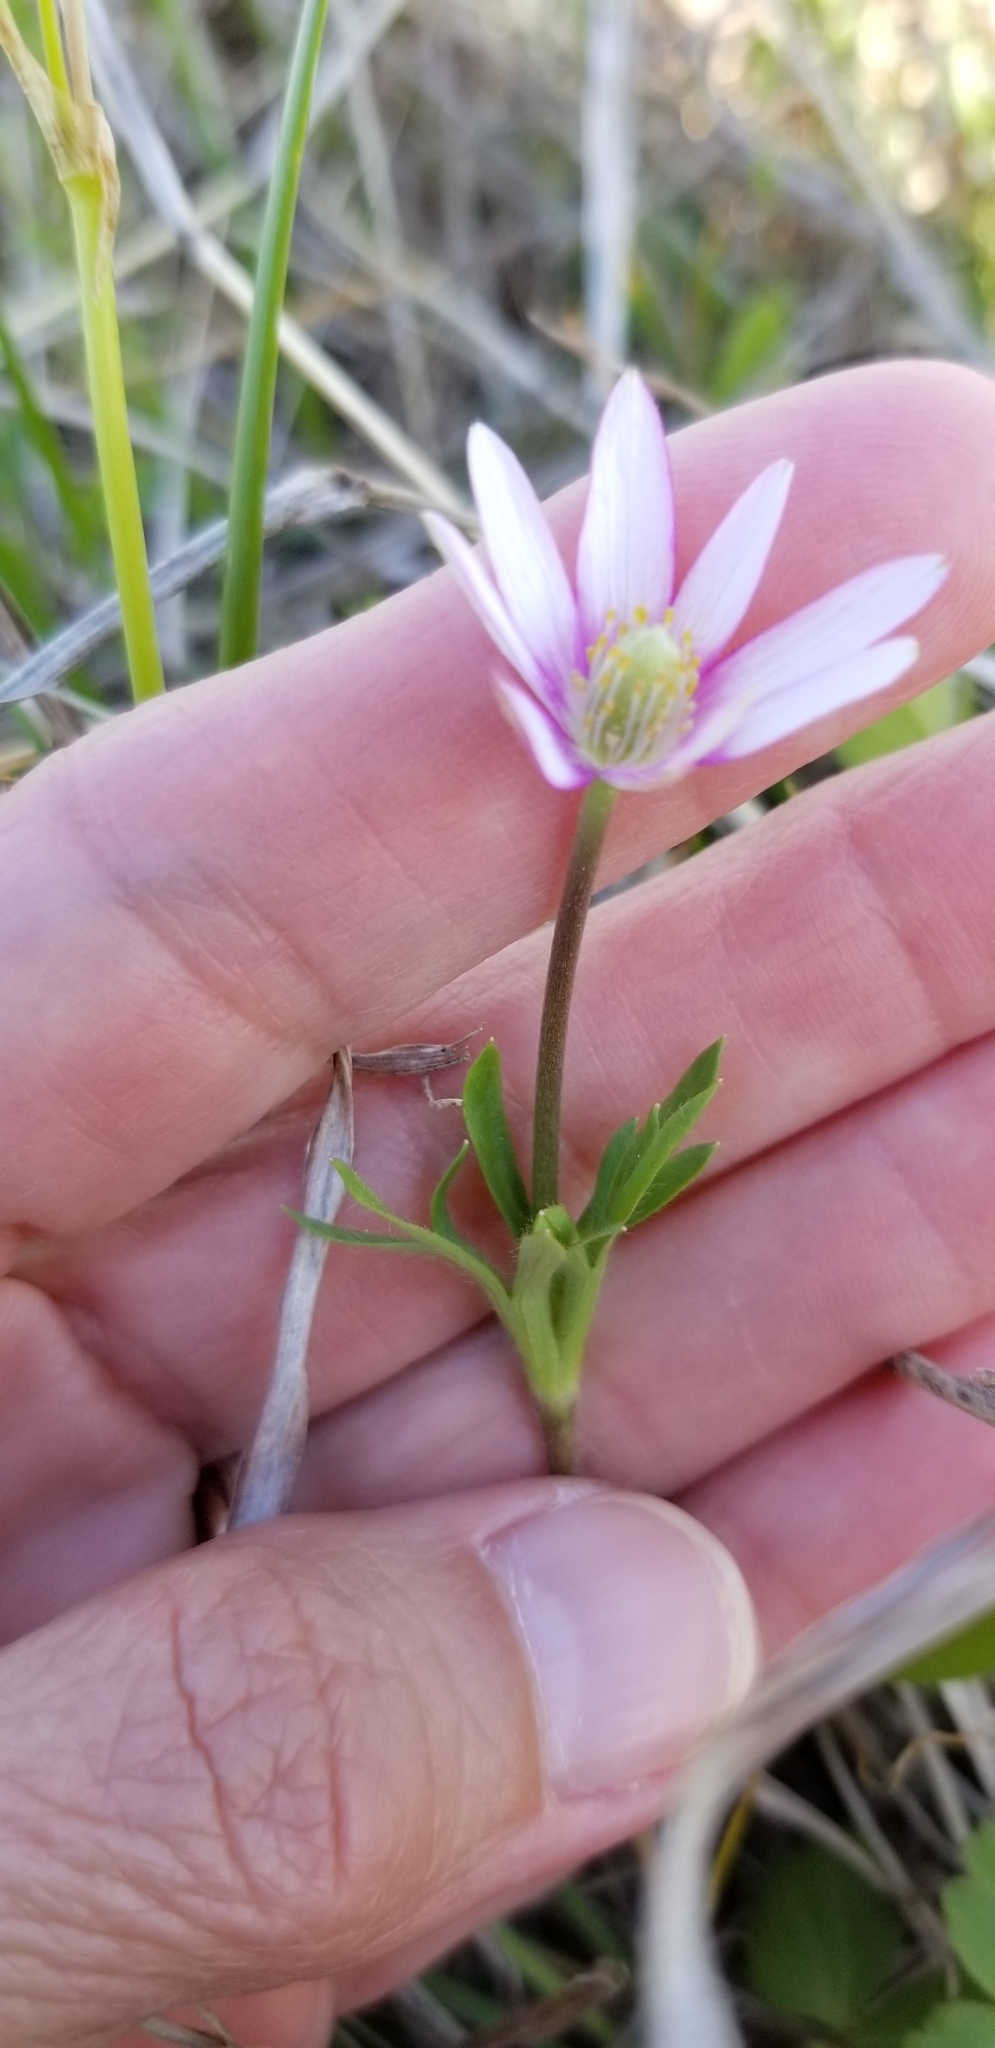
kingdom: Plantae
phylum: Tracheophyta
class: Magnoliopsida
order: Ranunculales
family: Ranunculaceae
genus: Anemone
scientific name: Anemone berlandieri
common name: Ten-petal anemone
